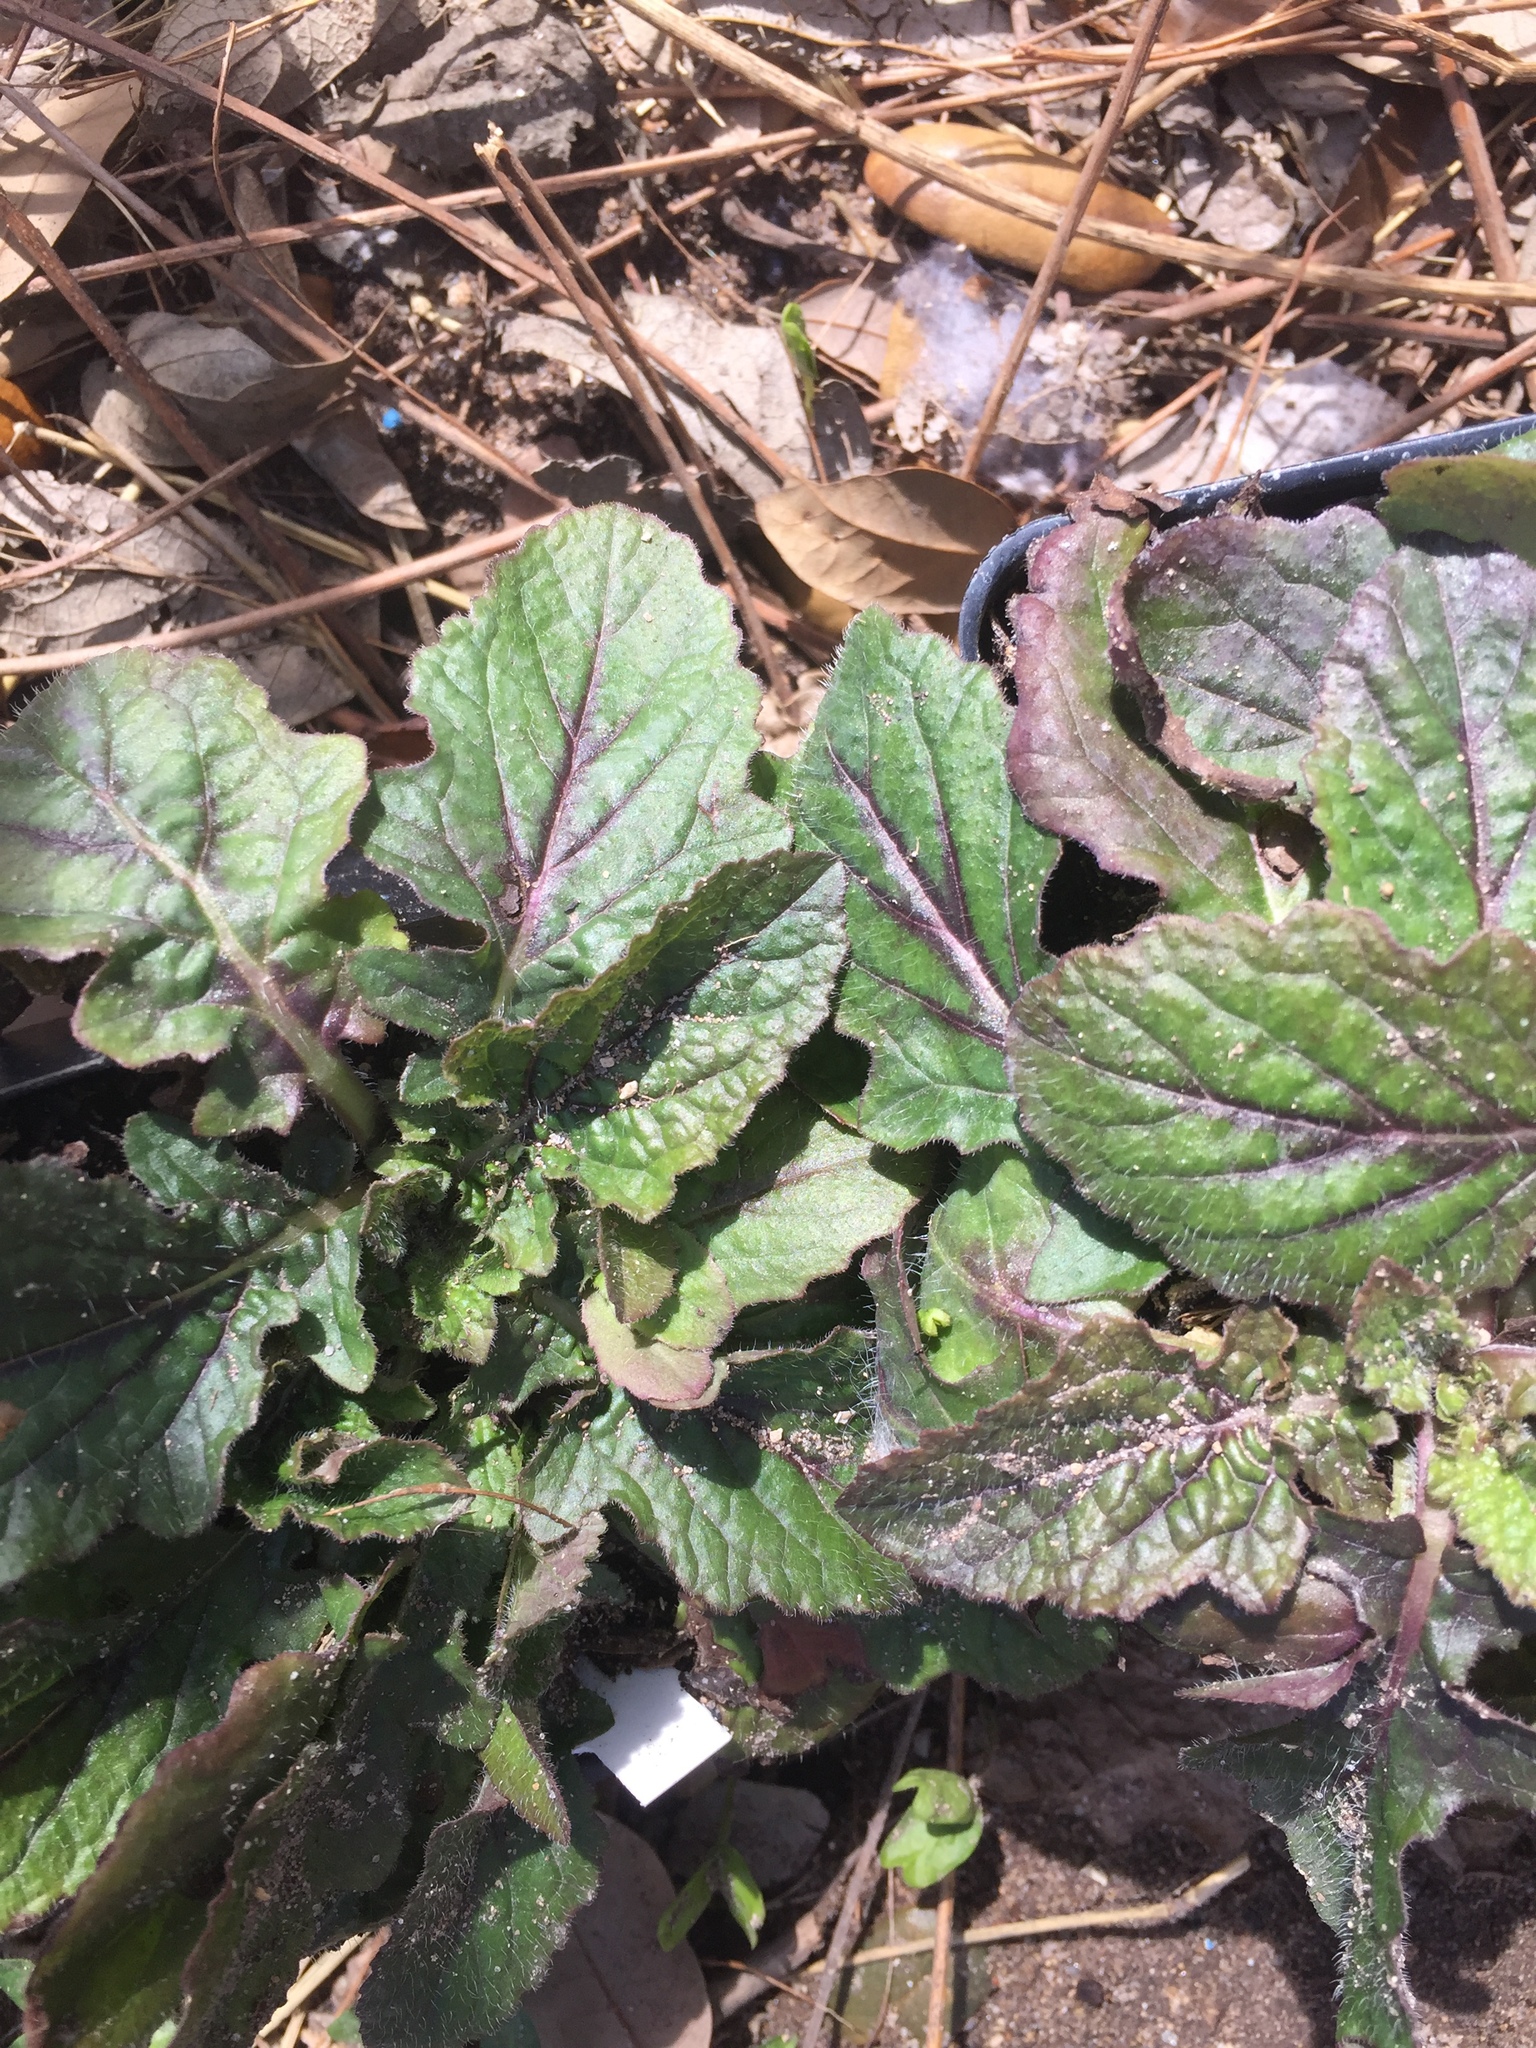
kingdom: Plantae
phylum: Tracheophyta
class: Magnoliopsida
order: Lamiales
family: Lamiaceae
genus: Salvia
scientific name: Salvia lyrata
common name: Cancerweed
